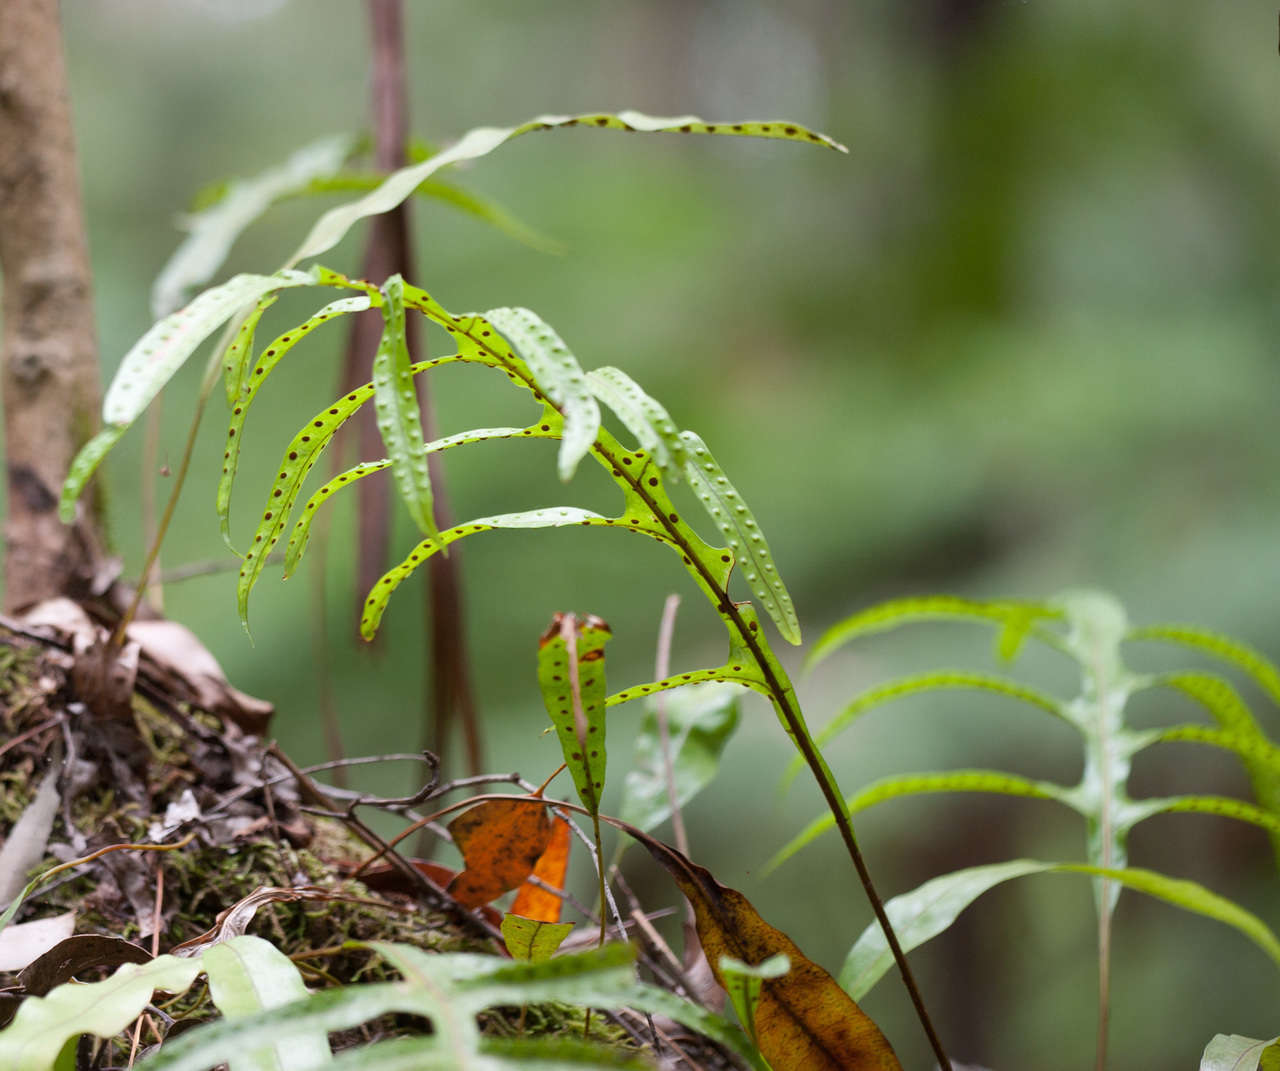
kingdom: Plantae
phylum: Tracheophyta
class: Polypodiopsida
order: Polypodiales
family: Polypodiaceae
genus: Lecanopteris
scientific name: Lecanopteris pustulata
